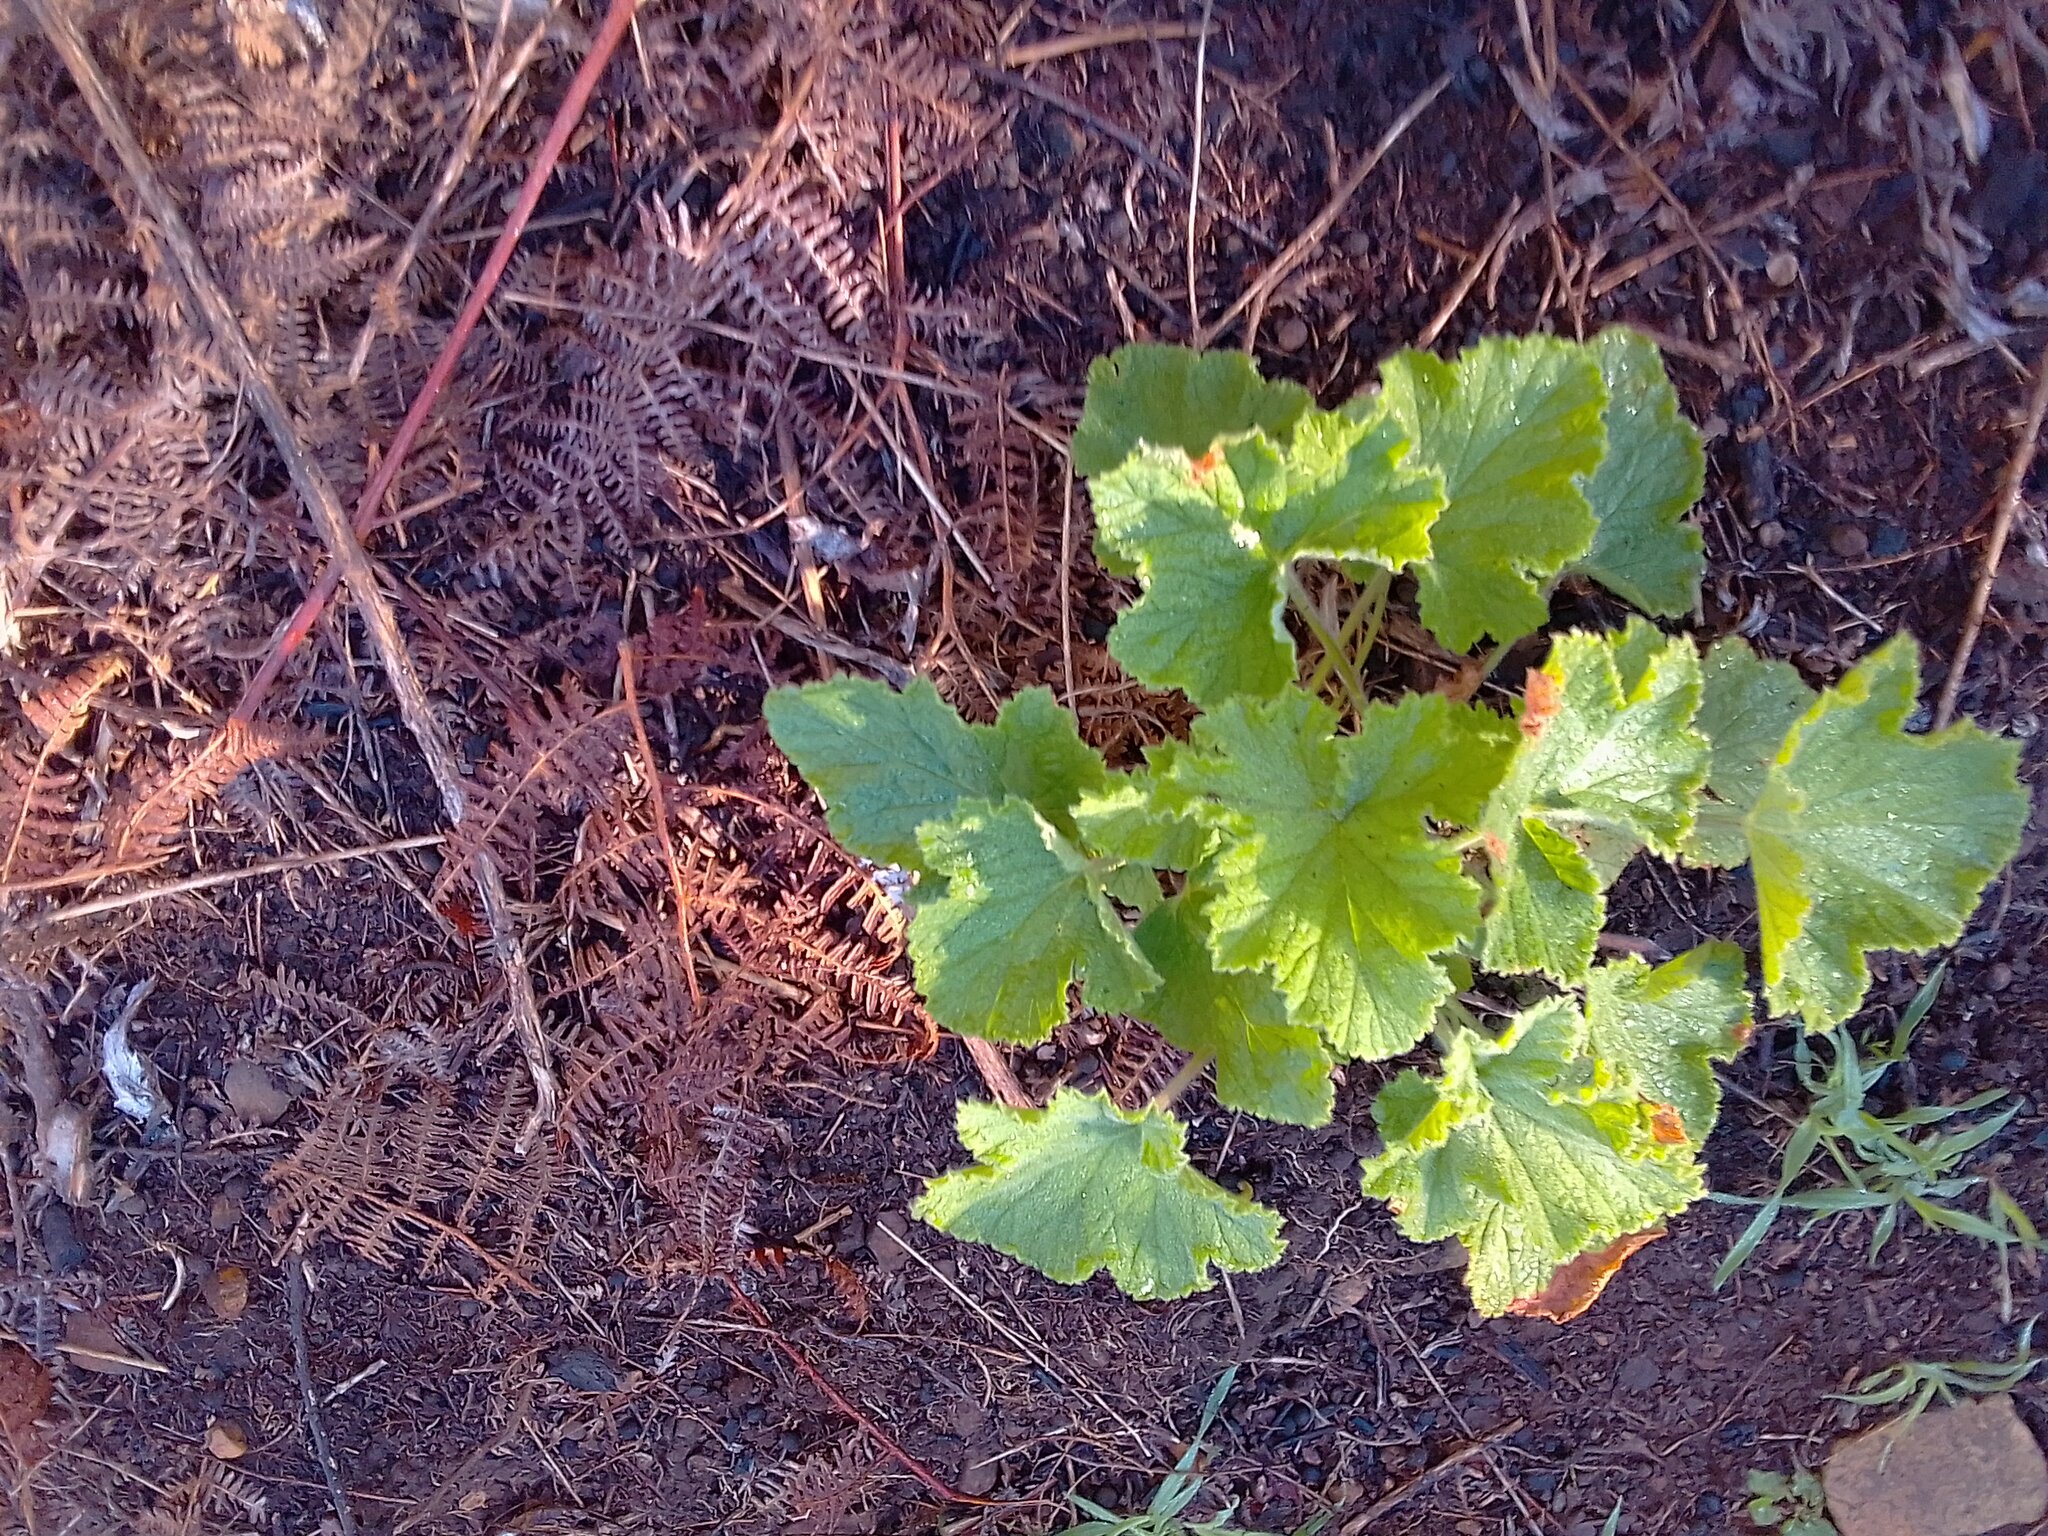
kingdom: Plantae
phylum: Tracheophyta
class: Magnoliopsida
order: Geraniales
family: Geraniaceae
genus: Pelargonium
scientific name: Pelargonium vitifolium
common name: Grapeleaf geranium
